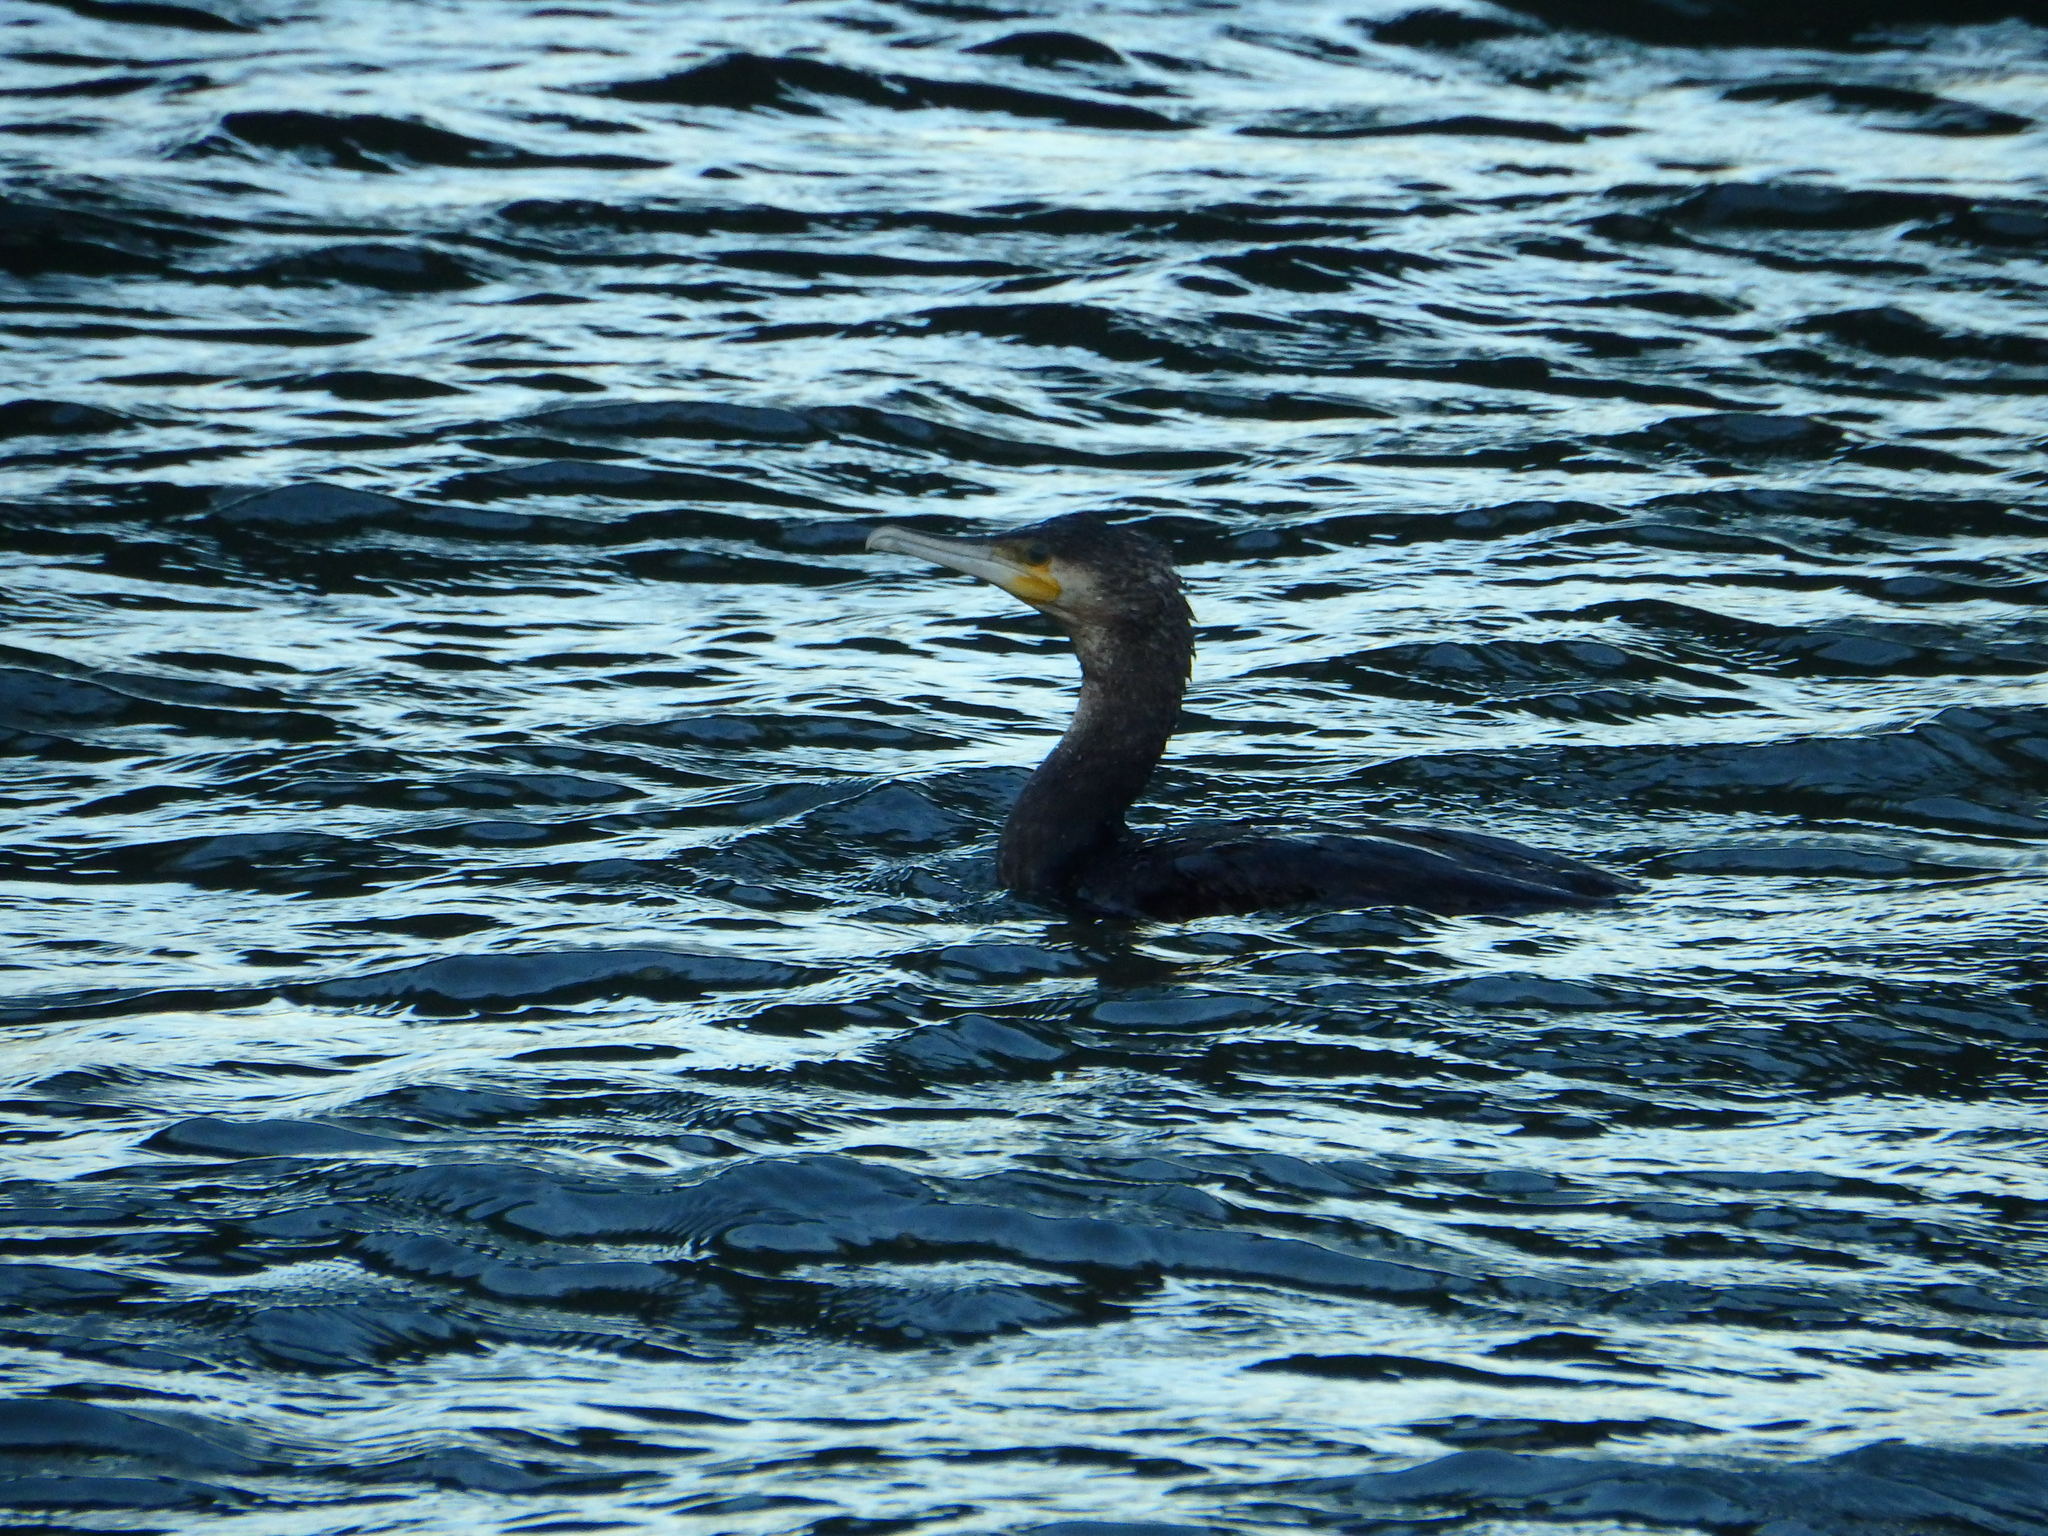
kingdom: Animalia
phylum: Chordata
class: Aves
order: Suliformes
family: Phalacrocoracidae
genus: Phalacrocorax
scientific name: Phalacrocorax carbo
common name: Great cormorant
